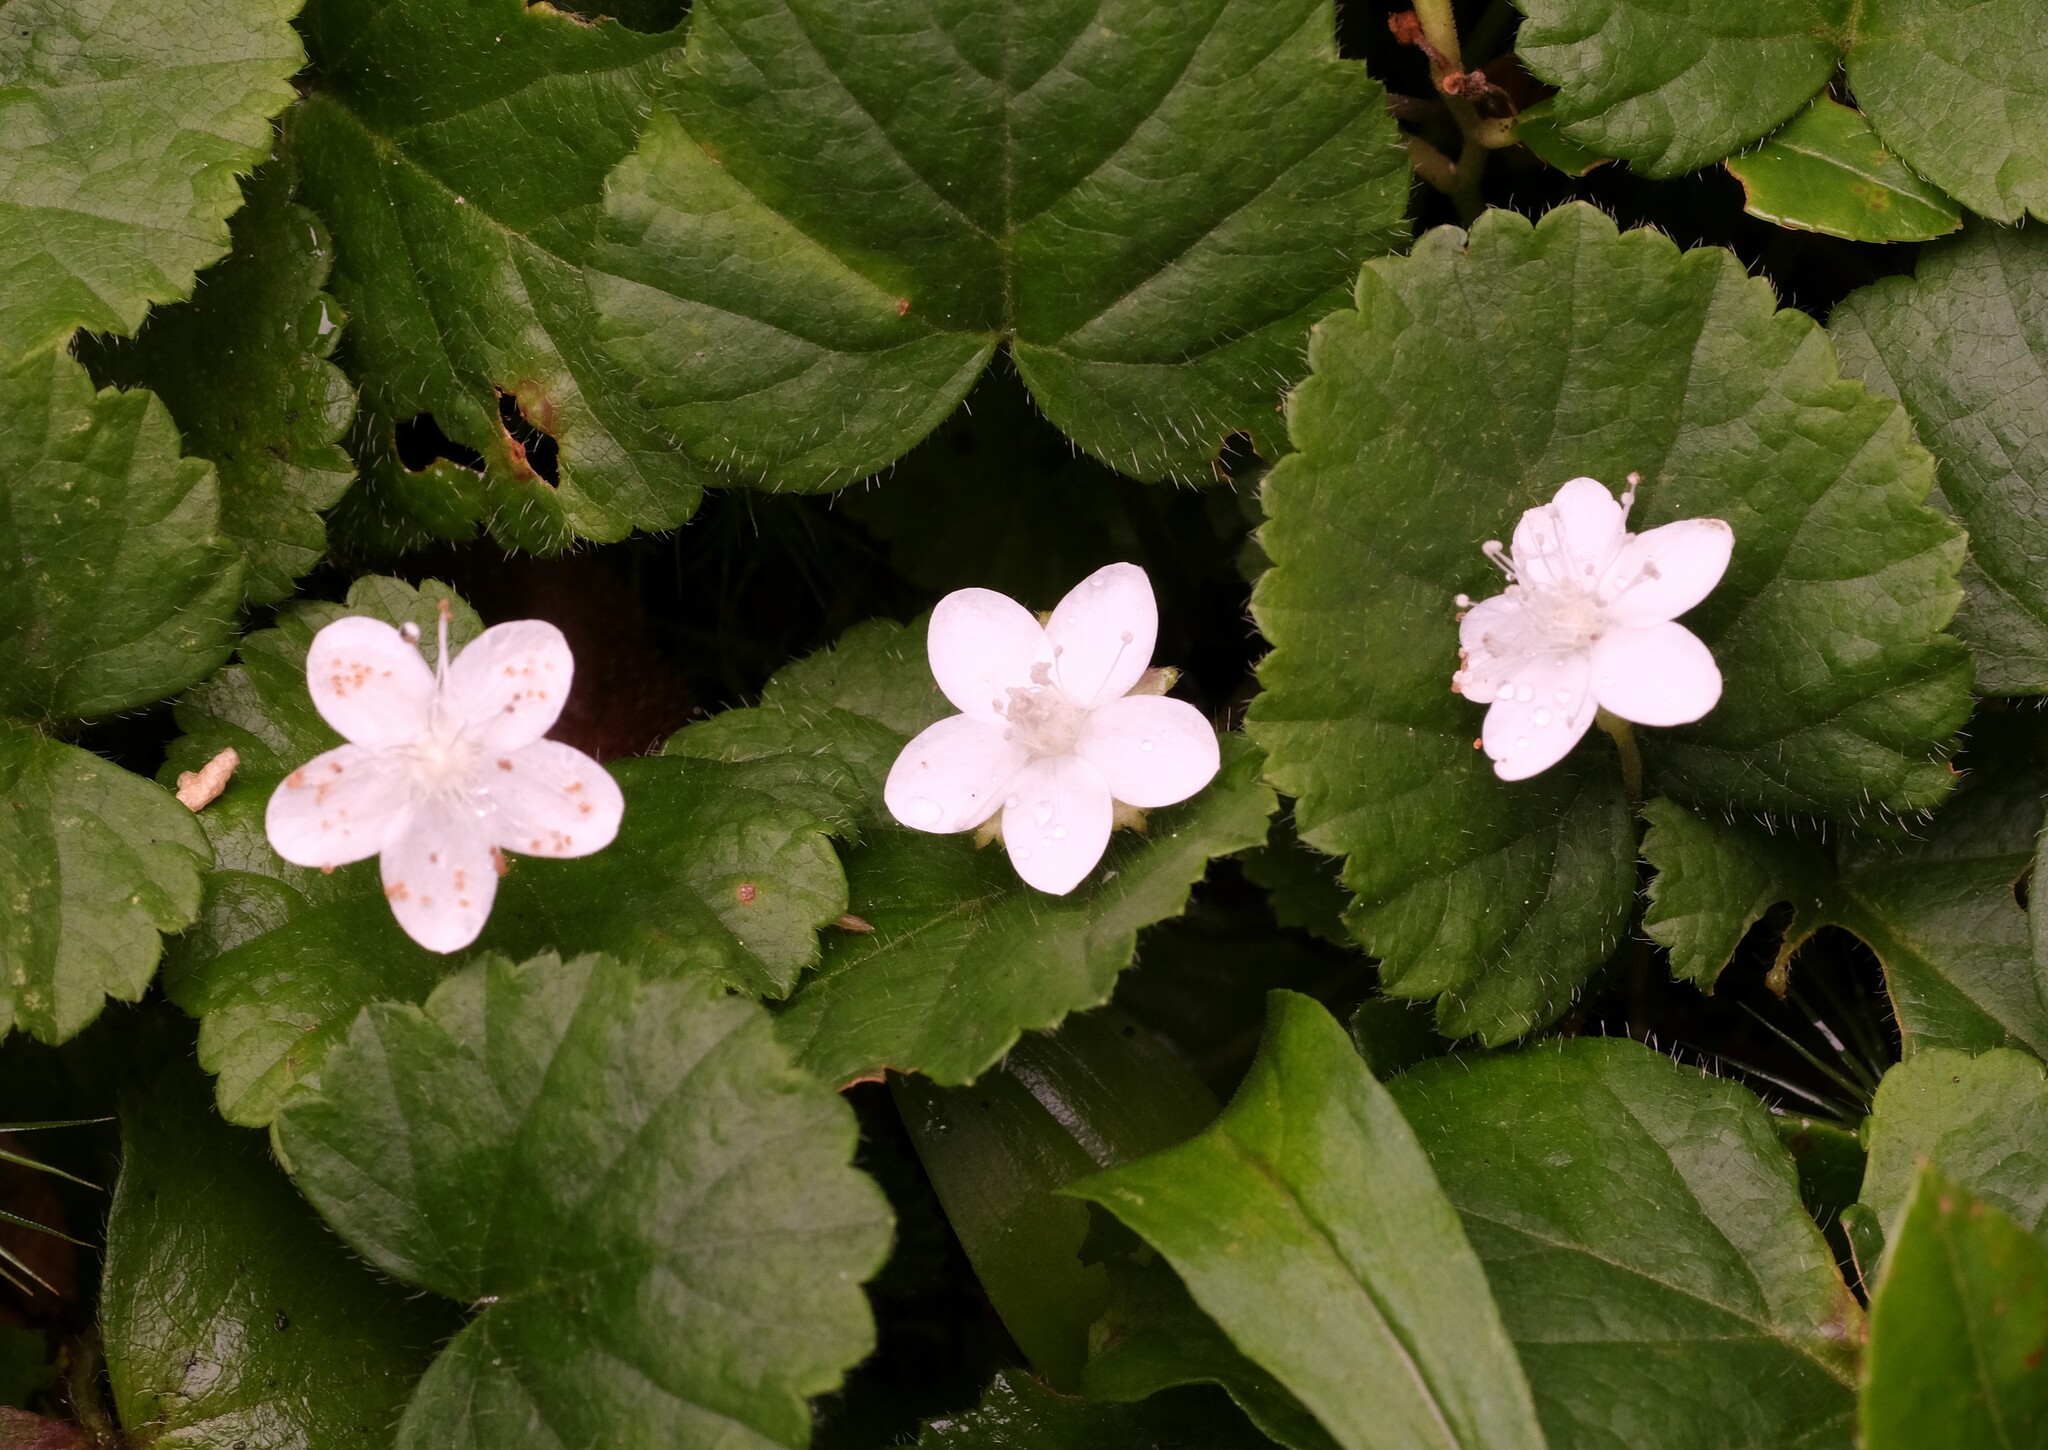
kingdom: Plantae
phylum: Tracheophyta
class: Magnoliopsida
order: Rosales
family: Rosaceae
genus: Dalibarda
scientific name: Dalibarda repens
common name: Dewdrop
